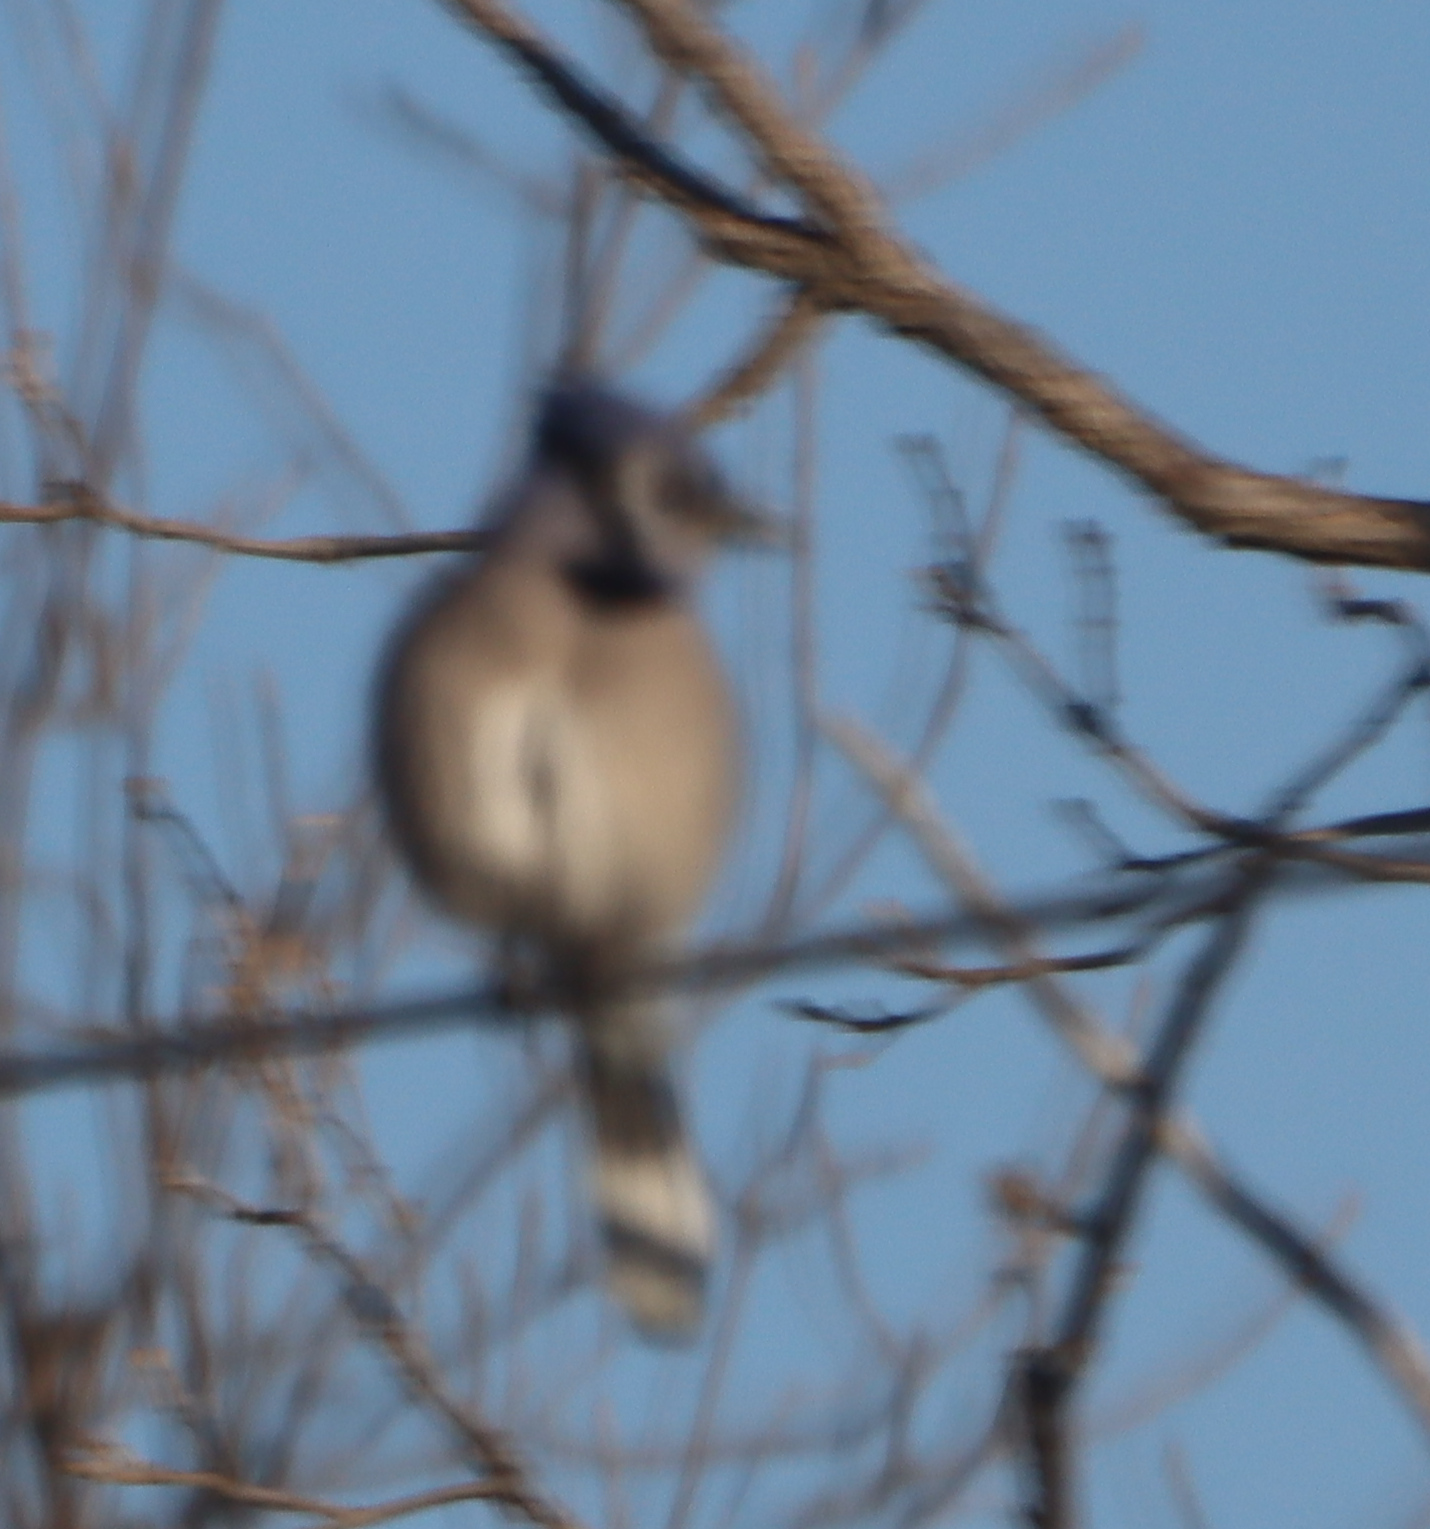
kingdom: Animalia
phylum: Chordata
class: Aves
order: Passeriformes
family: Corvidae
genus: Cyanocitta
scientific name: Cyanocitta cristata
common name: Blue jay
